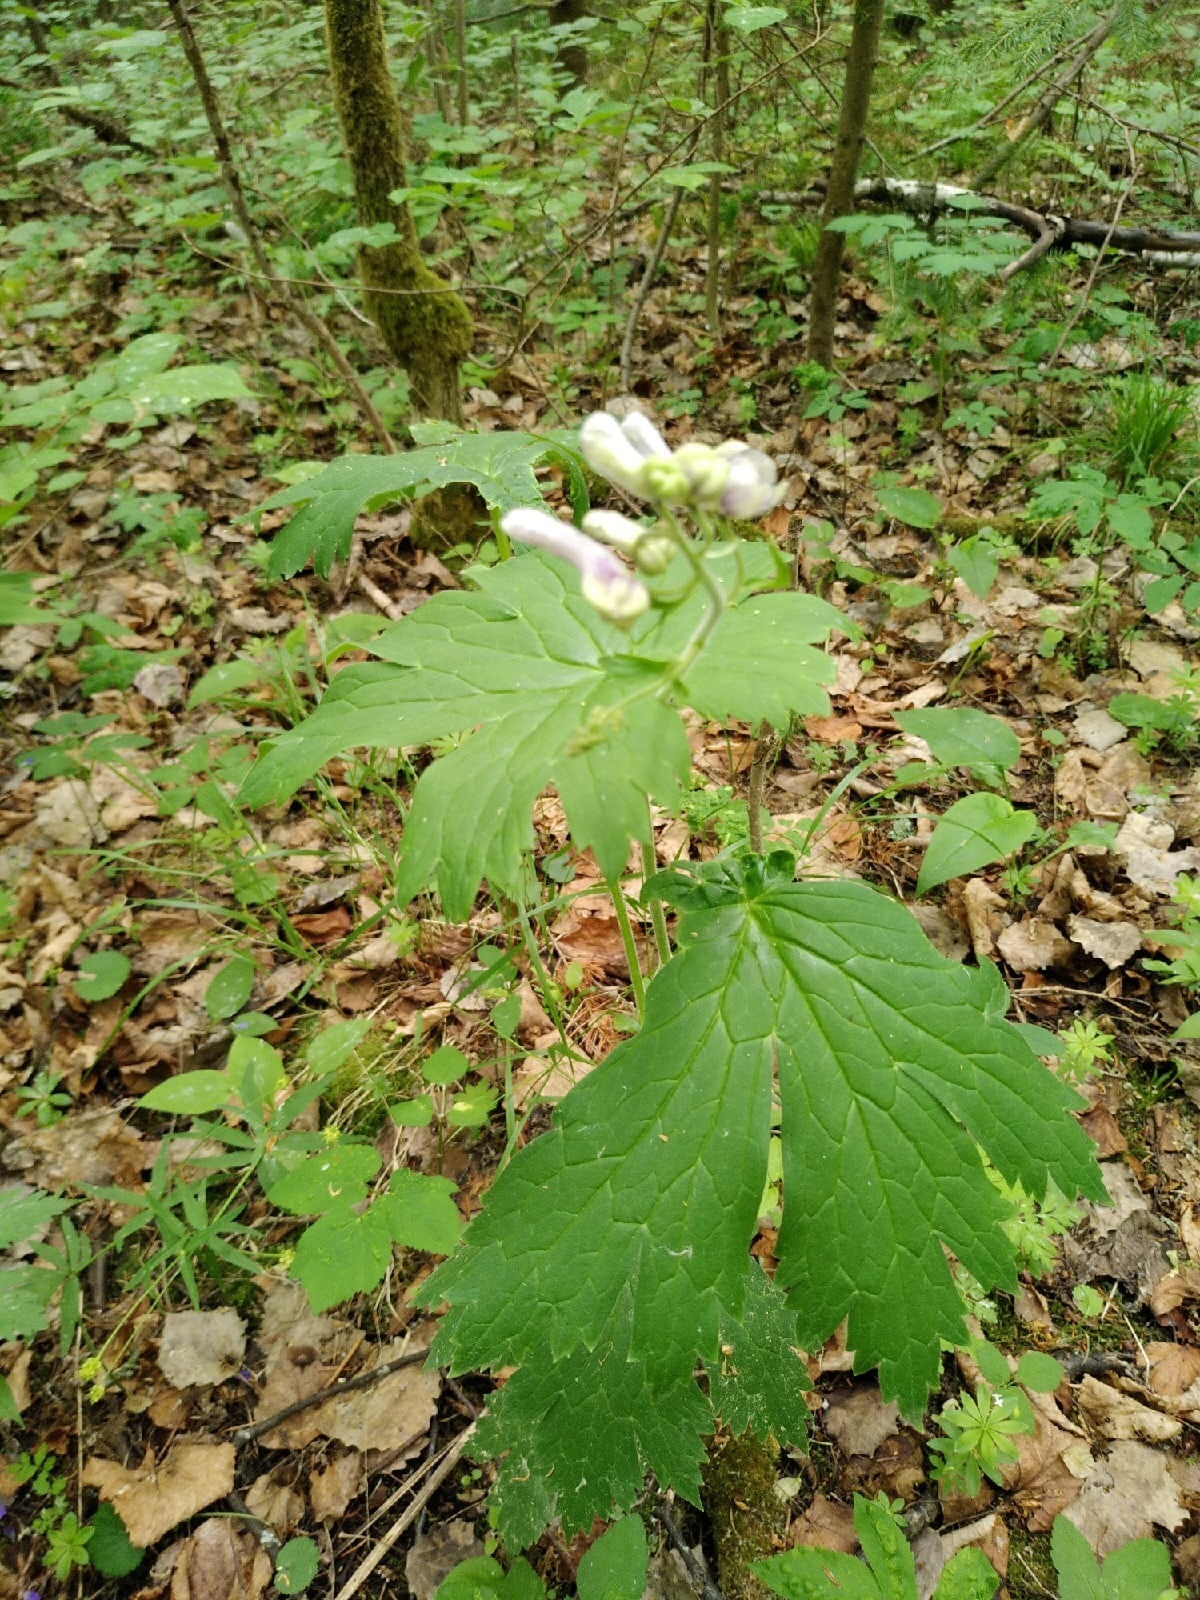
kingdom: Plantae
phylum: Tracheophyta
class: Magnoliopsida
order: Ranunculales
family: Ranunculaceae
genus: Aconitum
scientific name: Aconitum septentrionale
